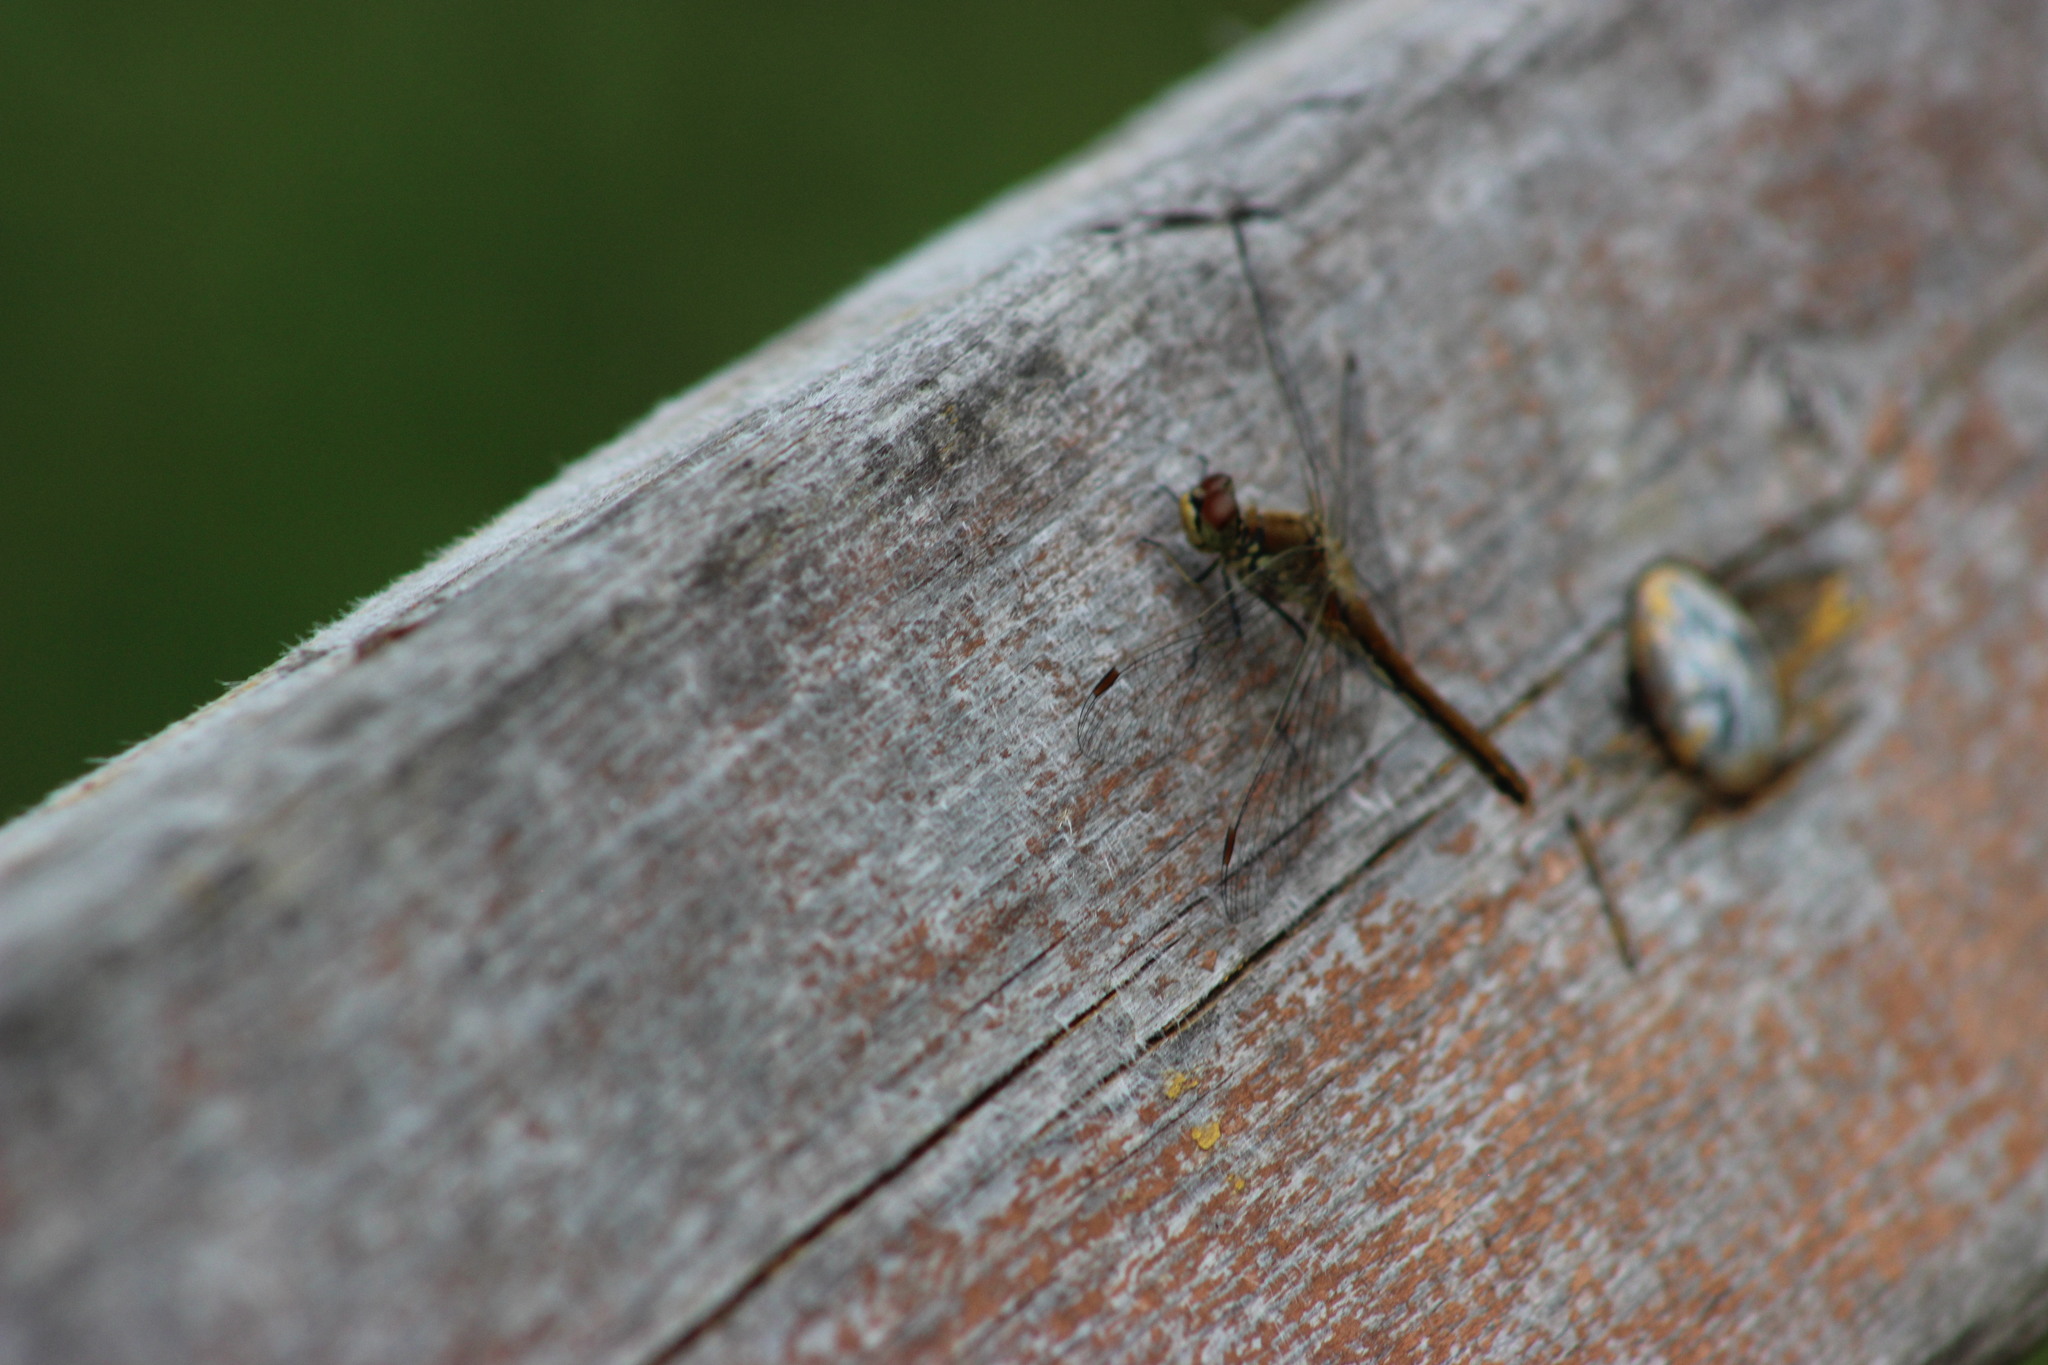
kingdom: Animalia
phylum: Arthropoda
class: Insecta
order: Odonata
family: Libellulidae
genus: Sympetrum
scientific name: Sympetrum flaveolum
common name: Yellow-winged darter
